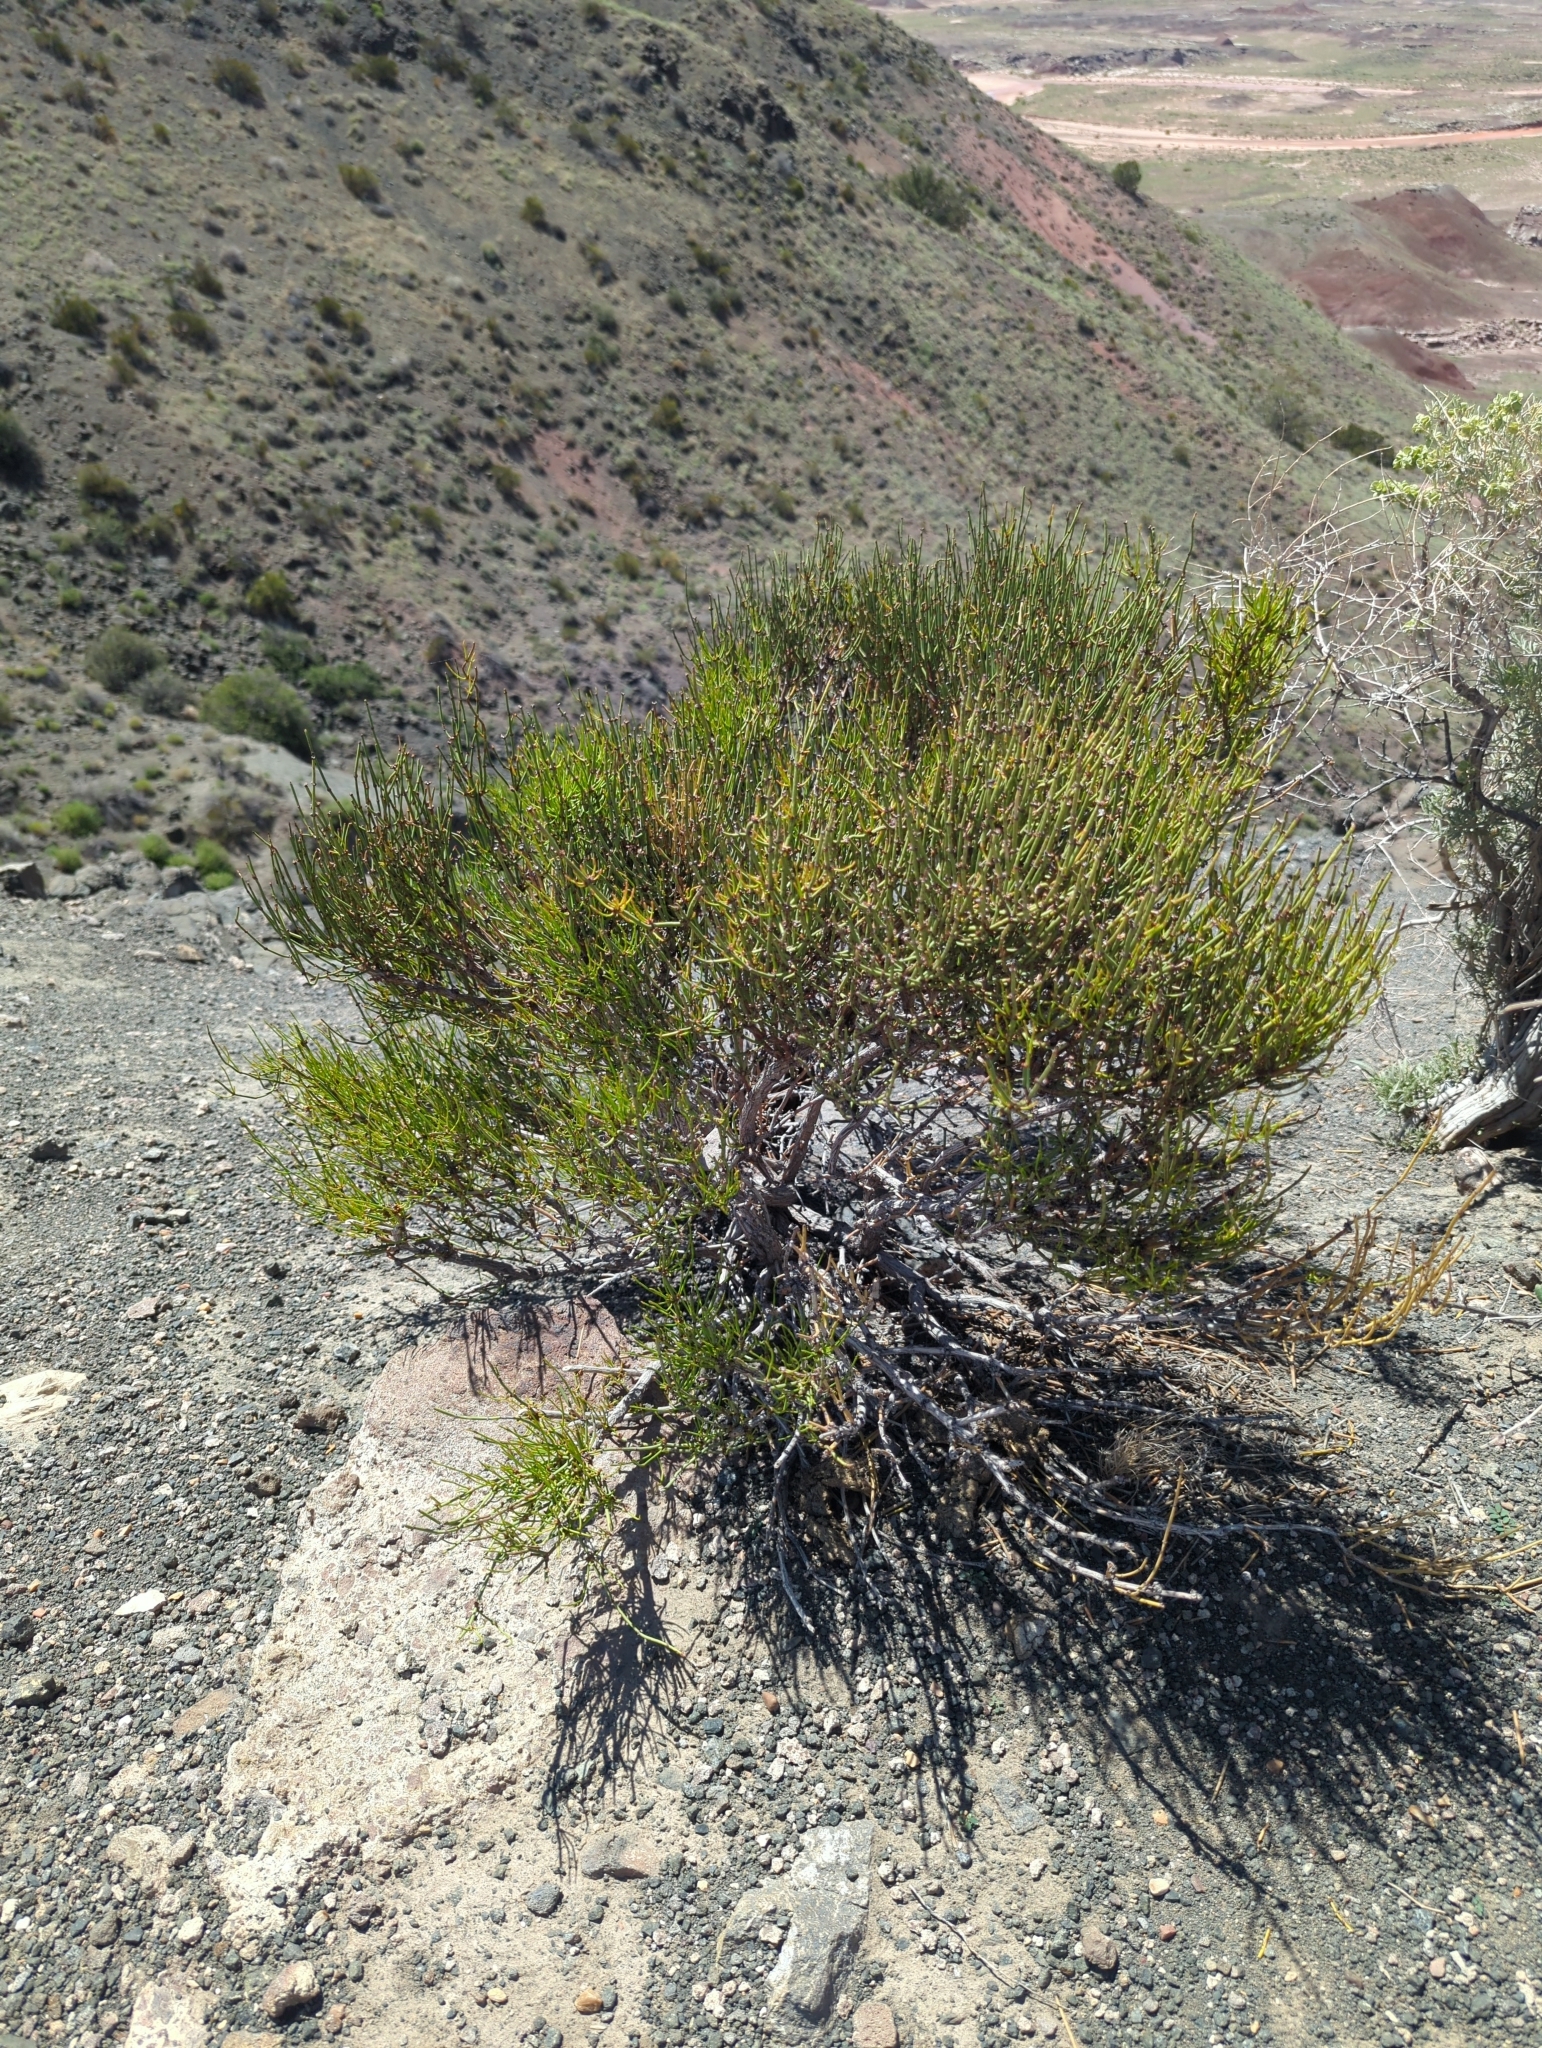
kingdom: Plantae
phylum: Tracheophyta
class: Gnetopsida
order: Ephedrales
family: Ephedraceae
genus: Ephedra
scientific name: Ephedra viridis
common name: Green ephedra
